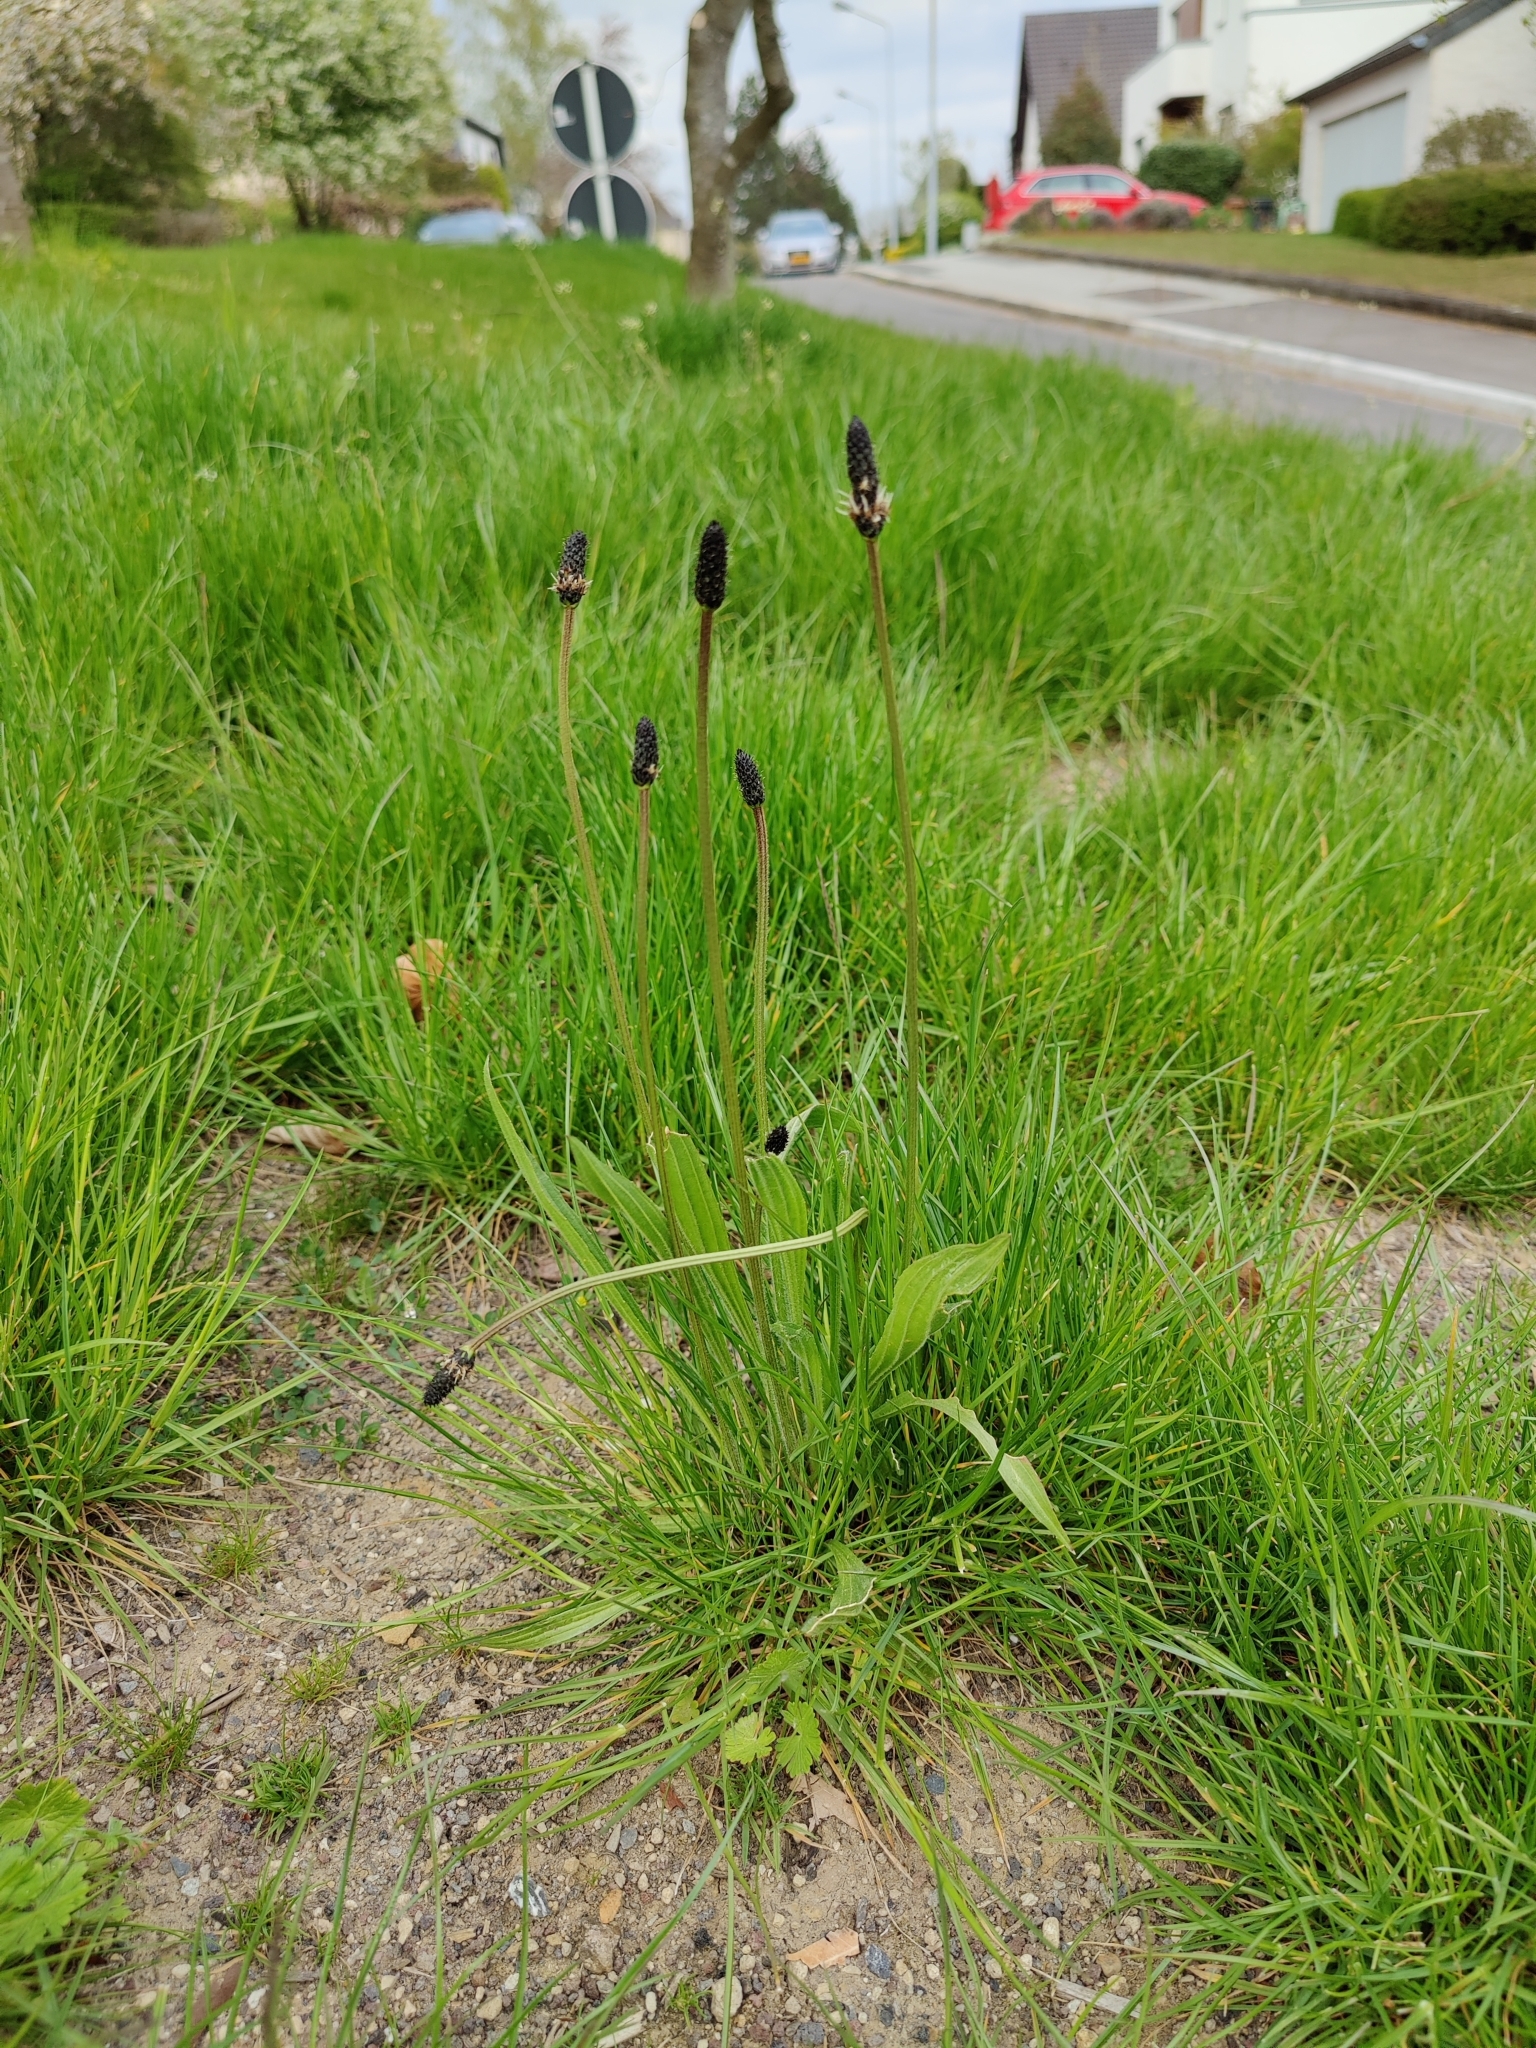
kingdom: Plantae
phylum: Tracheophyta
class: Magnoliopsida
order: Lamiales
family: Plantaginaceae
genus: Plantago
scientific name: Plantago lanceolata
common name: Ribwort plantain
